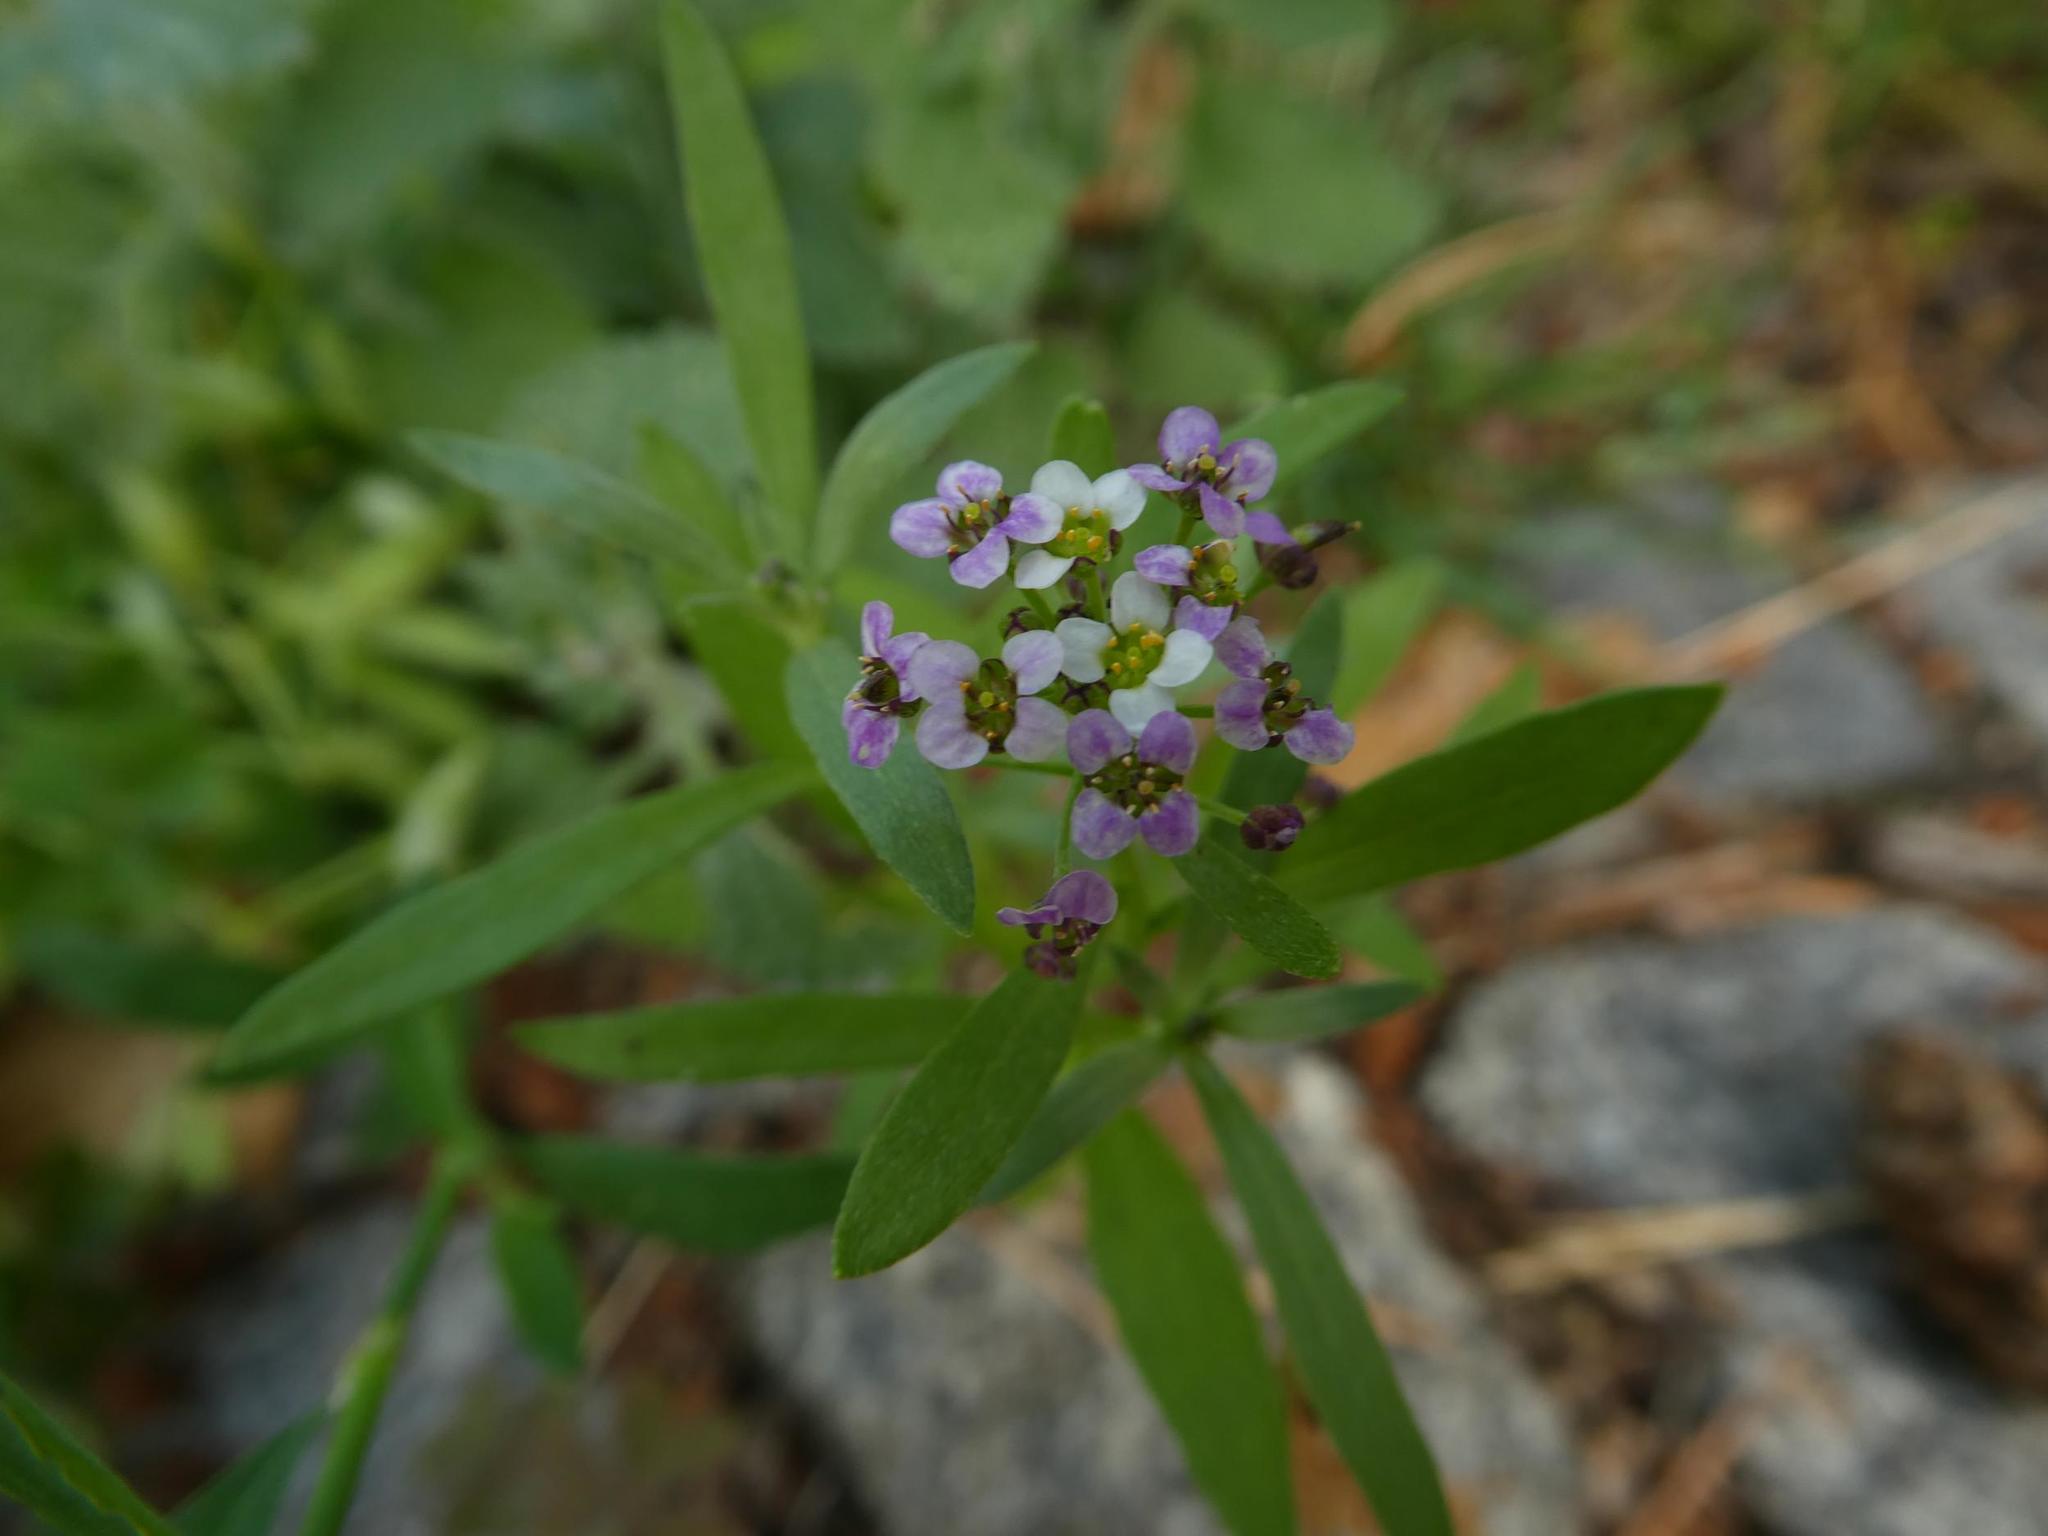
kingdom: Plantae
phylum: Tracheophyta
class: Magnoliopsida
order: Brassicales
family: Brassicaceae
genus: Lobularia
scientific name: Lobularia maritima
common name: Sweet alison
